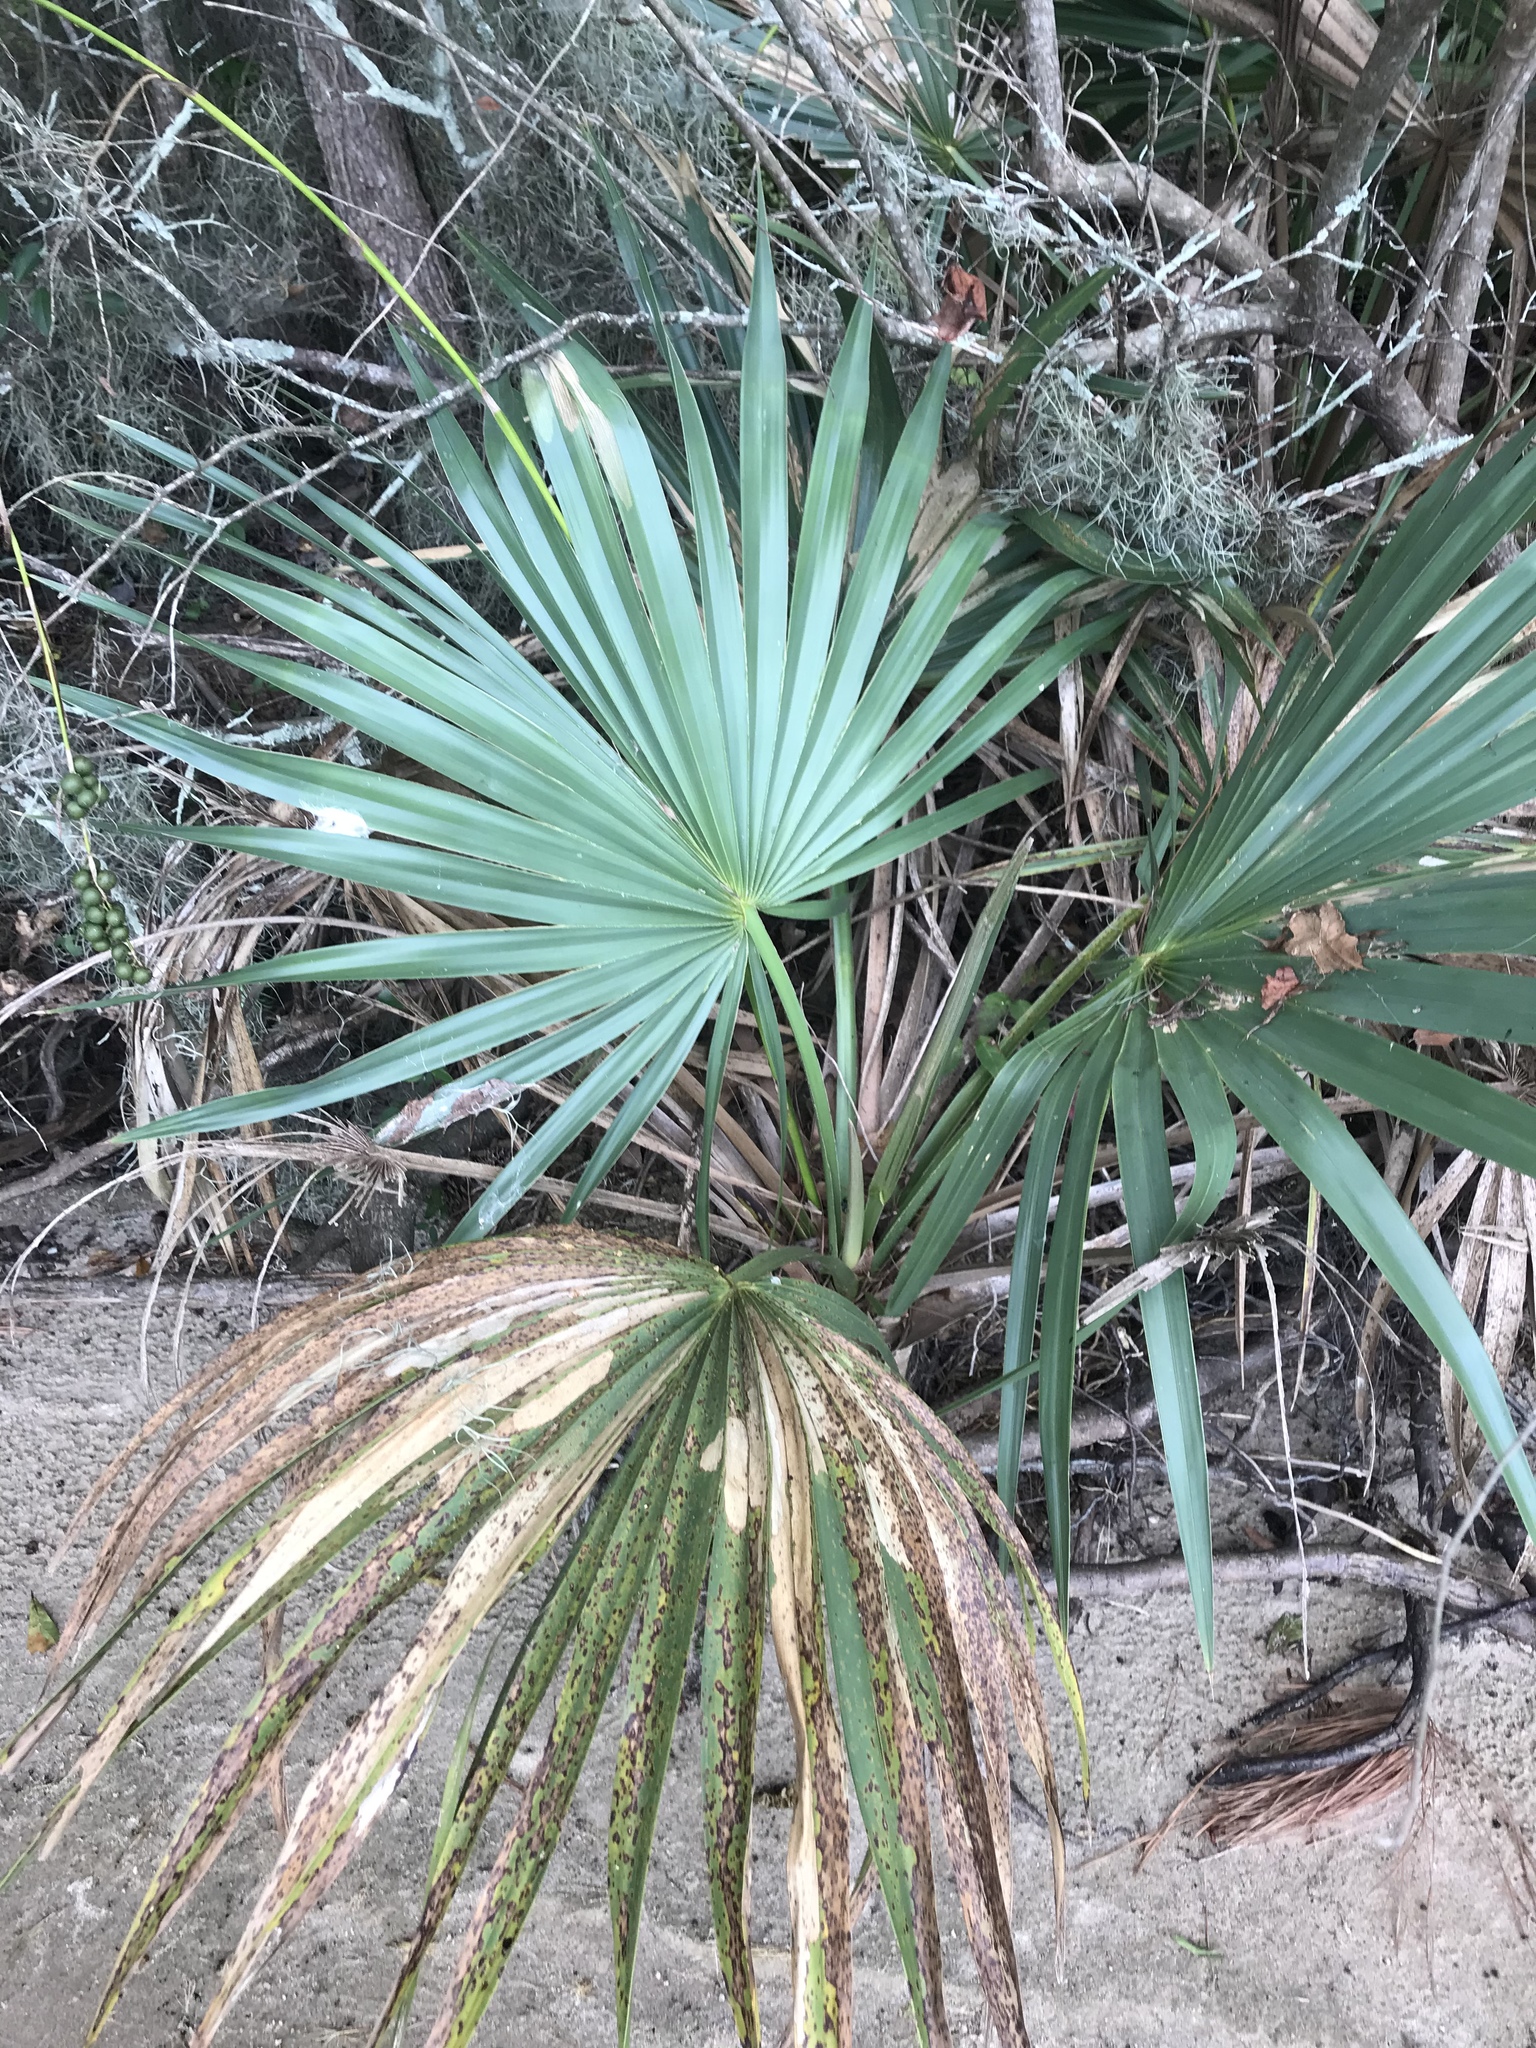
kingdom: Plantae
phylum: Tracheophyta
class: Liliopsida
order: Arecales
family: Arecaceae
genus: Sabal
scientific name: Sabal minor
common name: Dwarf palmetto
